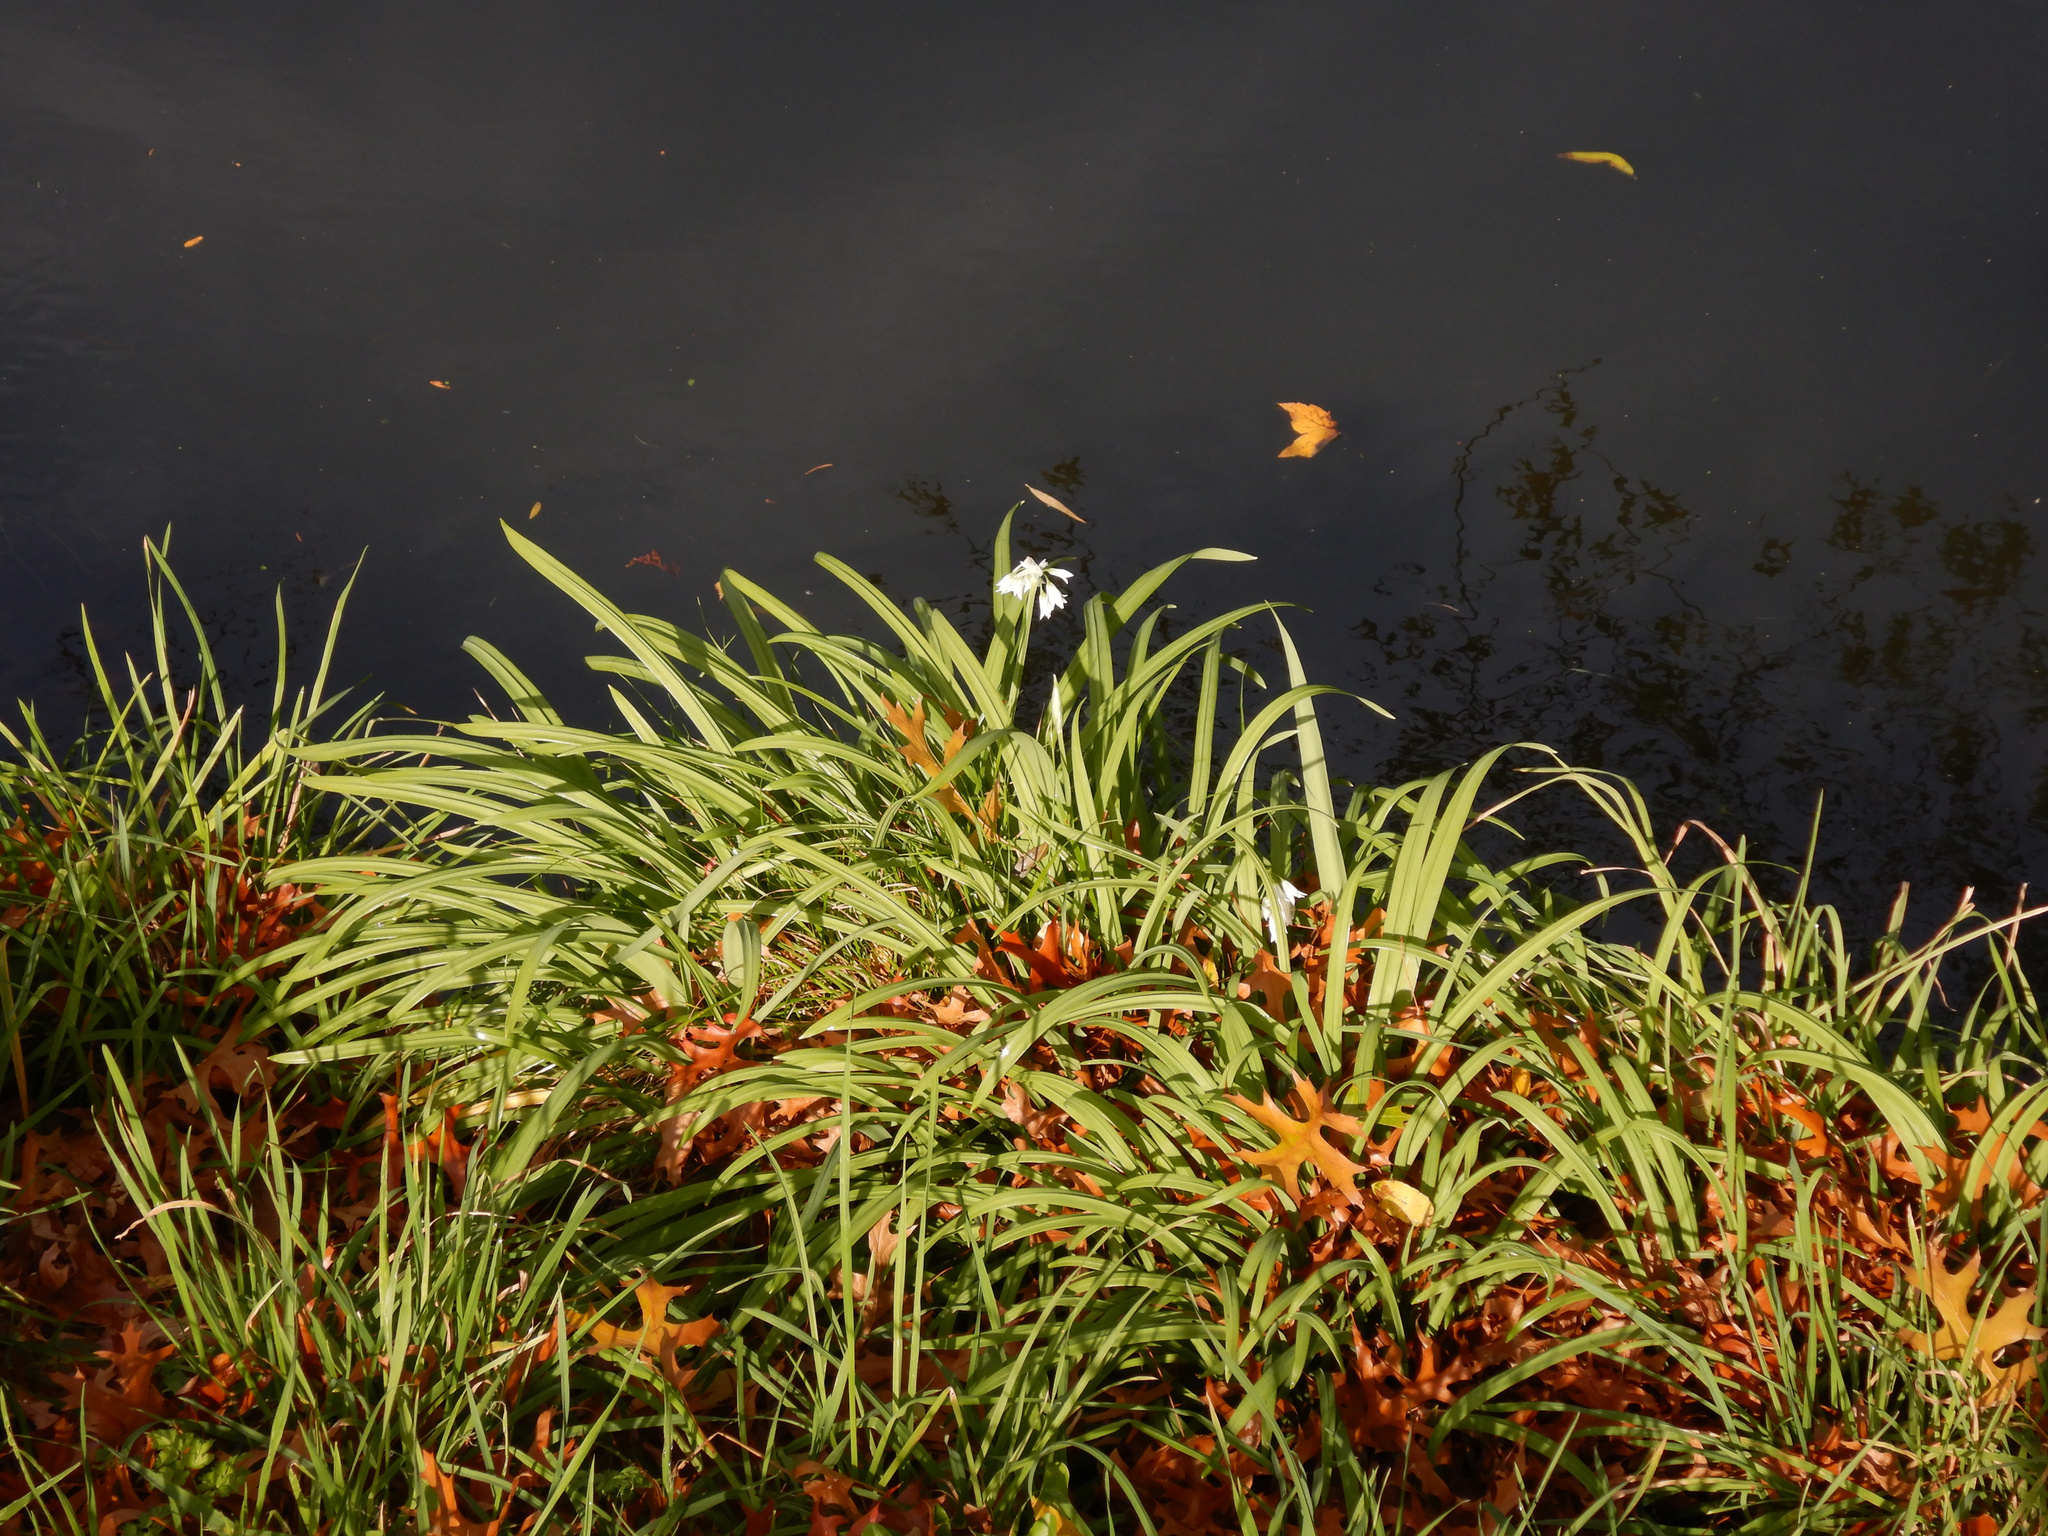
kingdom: Plantae
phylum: Tracheophyta
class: Liliopsida
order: Asparagales
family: Amaryllidaceae
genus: Allium
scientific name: Allium triquetrum
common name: Three-cornered garlic
